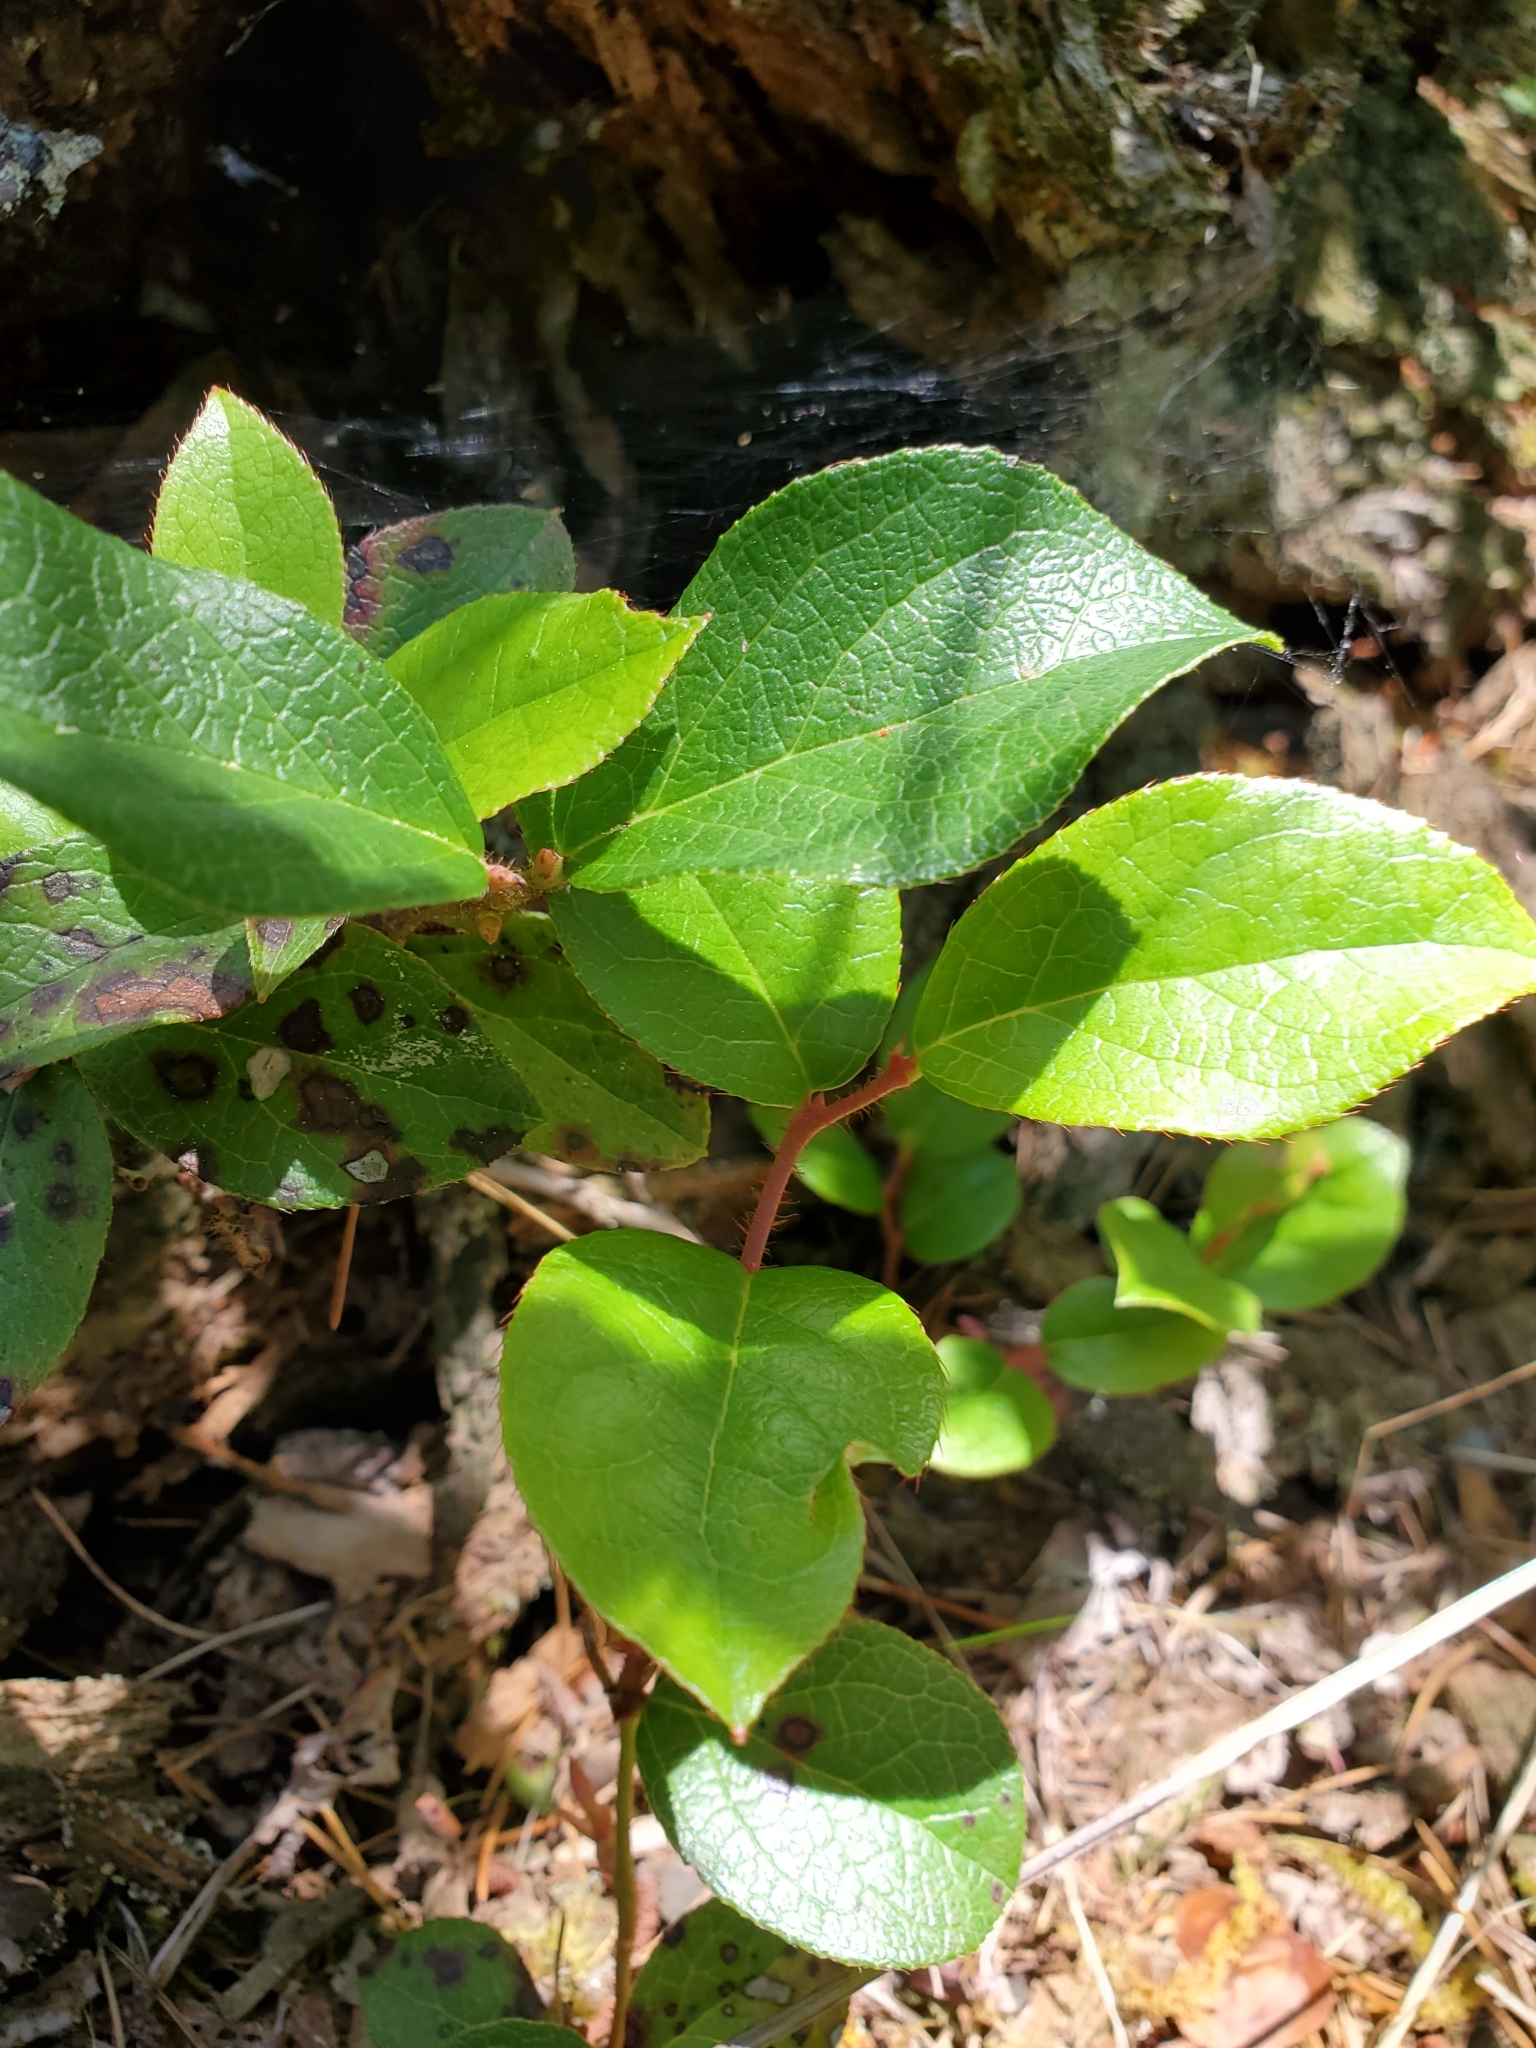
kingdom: Plantae
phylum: Tracheophyta
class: Magnoliopsida
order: Ericales
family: Ericaceae
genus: Gaultheria
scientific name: Gaultheria shallon
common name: Shallon
